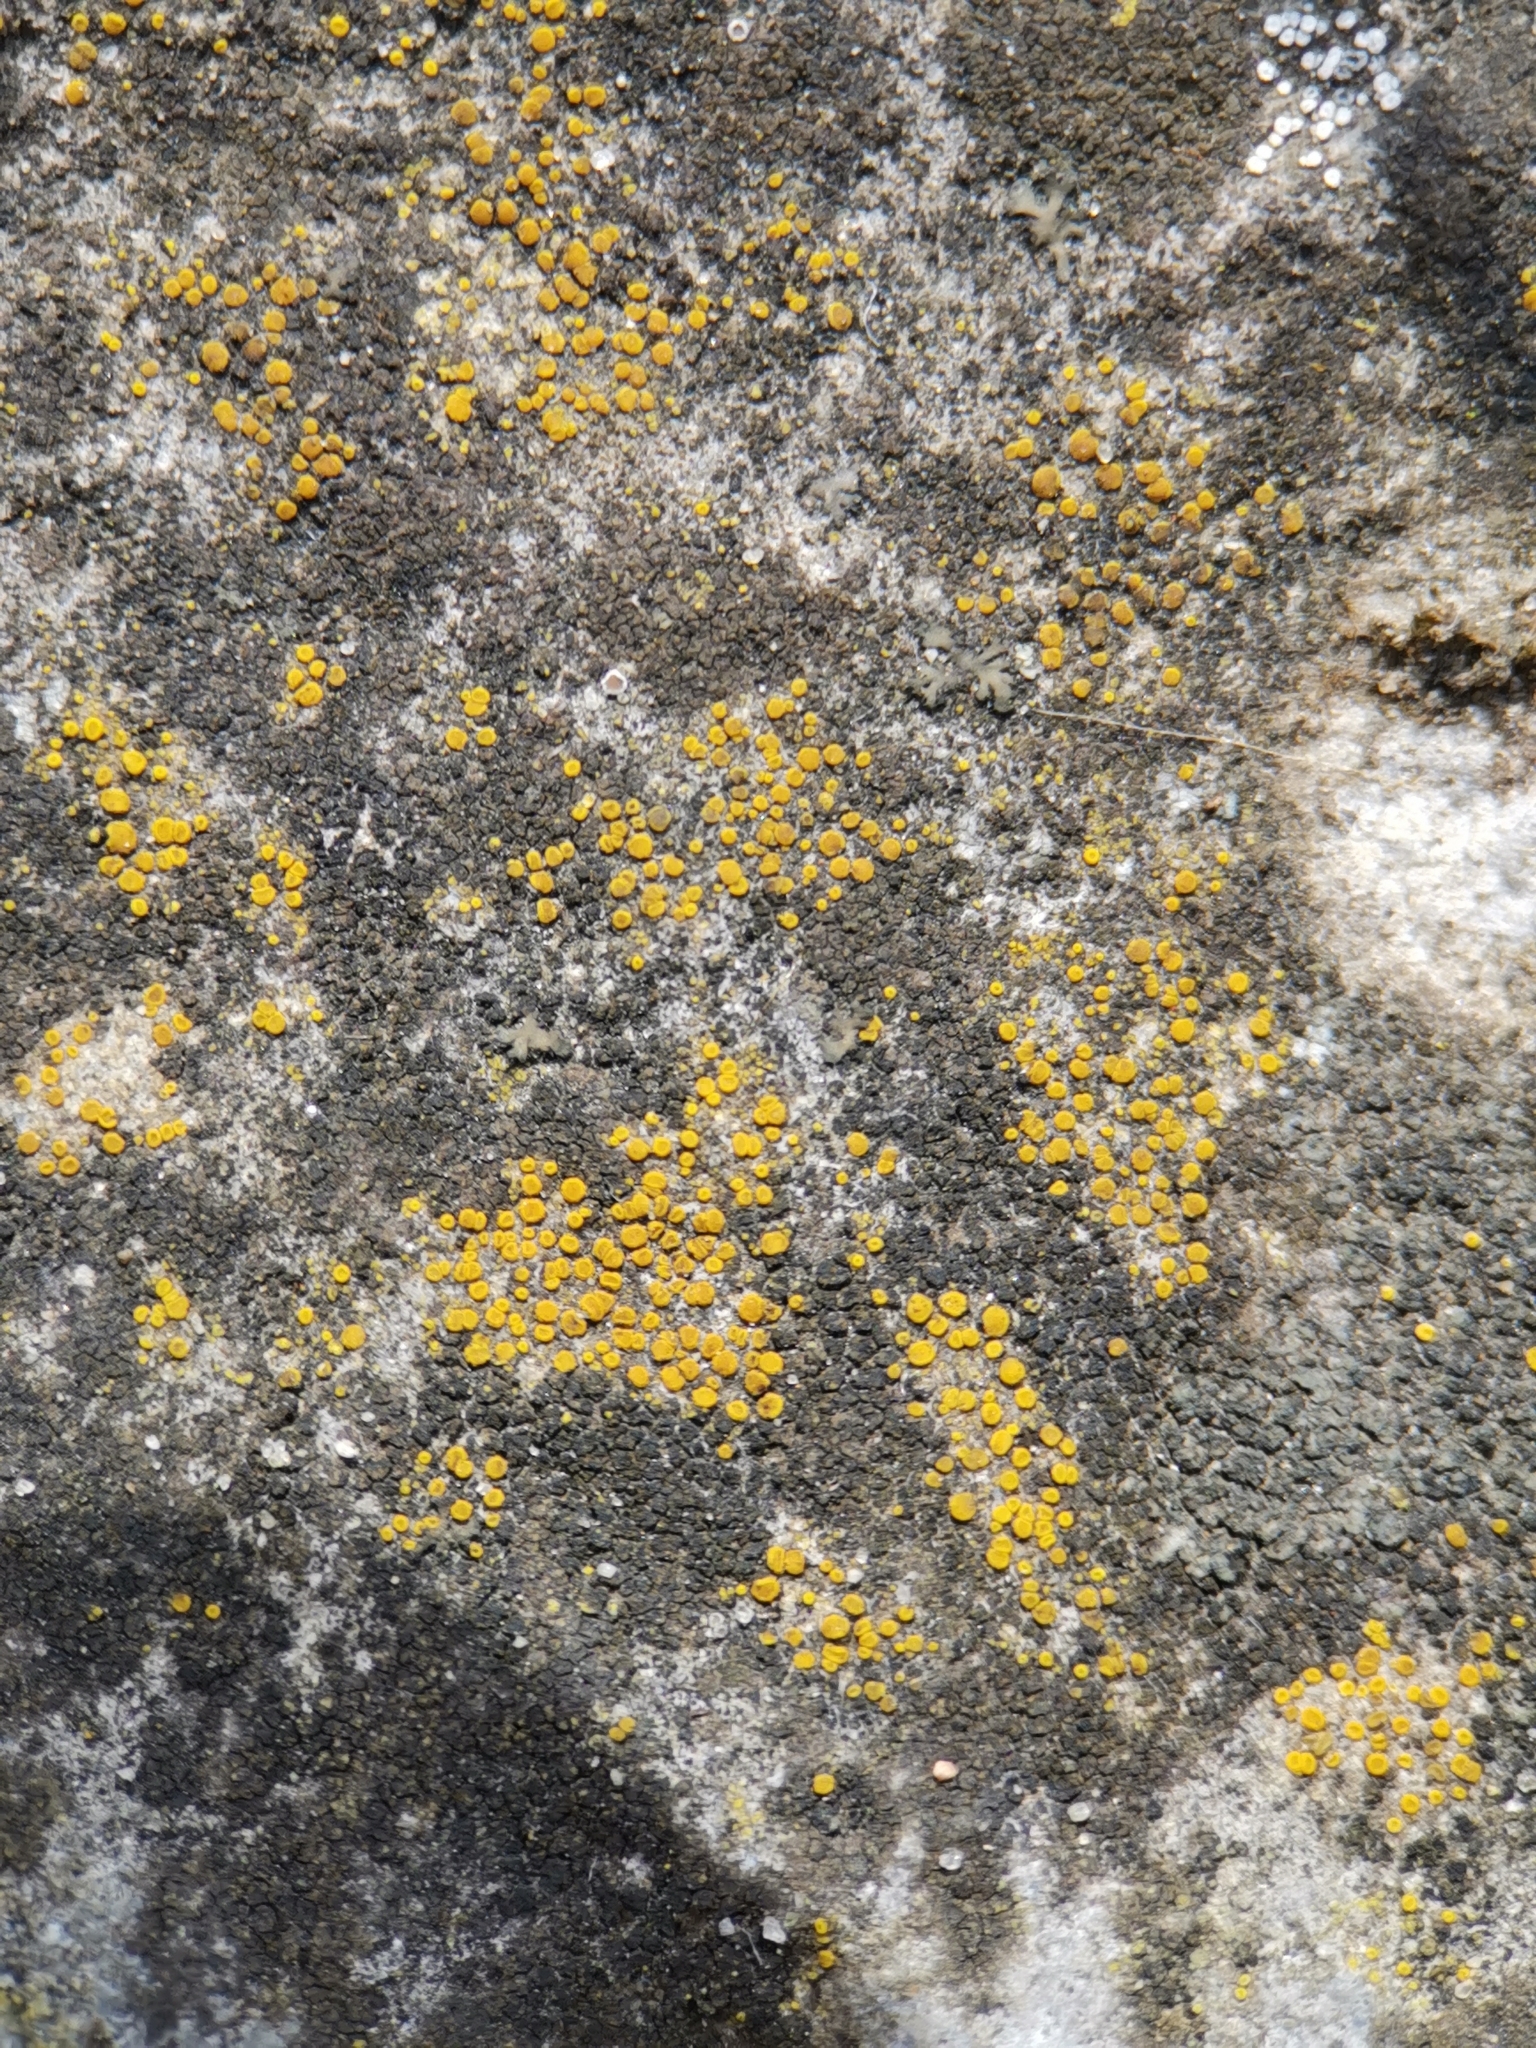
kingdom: Fungi
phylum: Ascomycota
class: Candelariomycetes
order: Candelariales
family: Candelariaceae
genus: Candelariella
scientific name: Candelariella aurella
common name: Hidden goldspeck lichen
